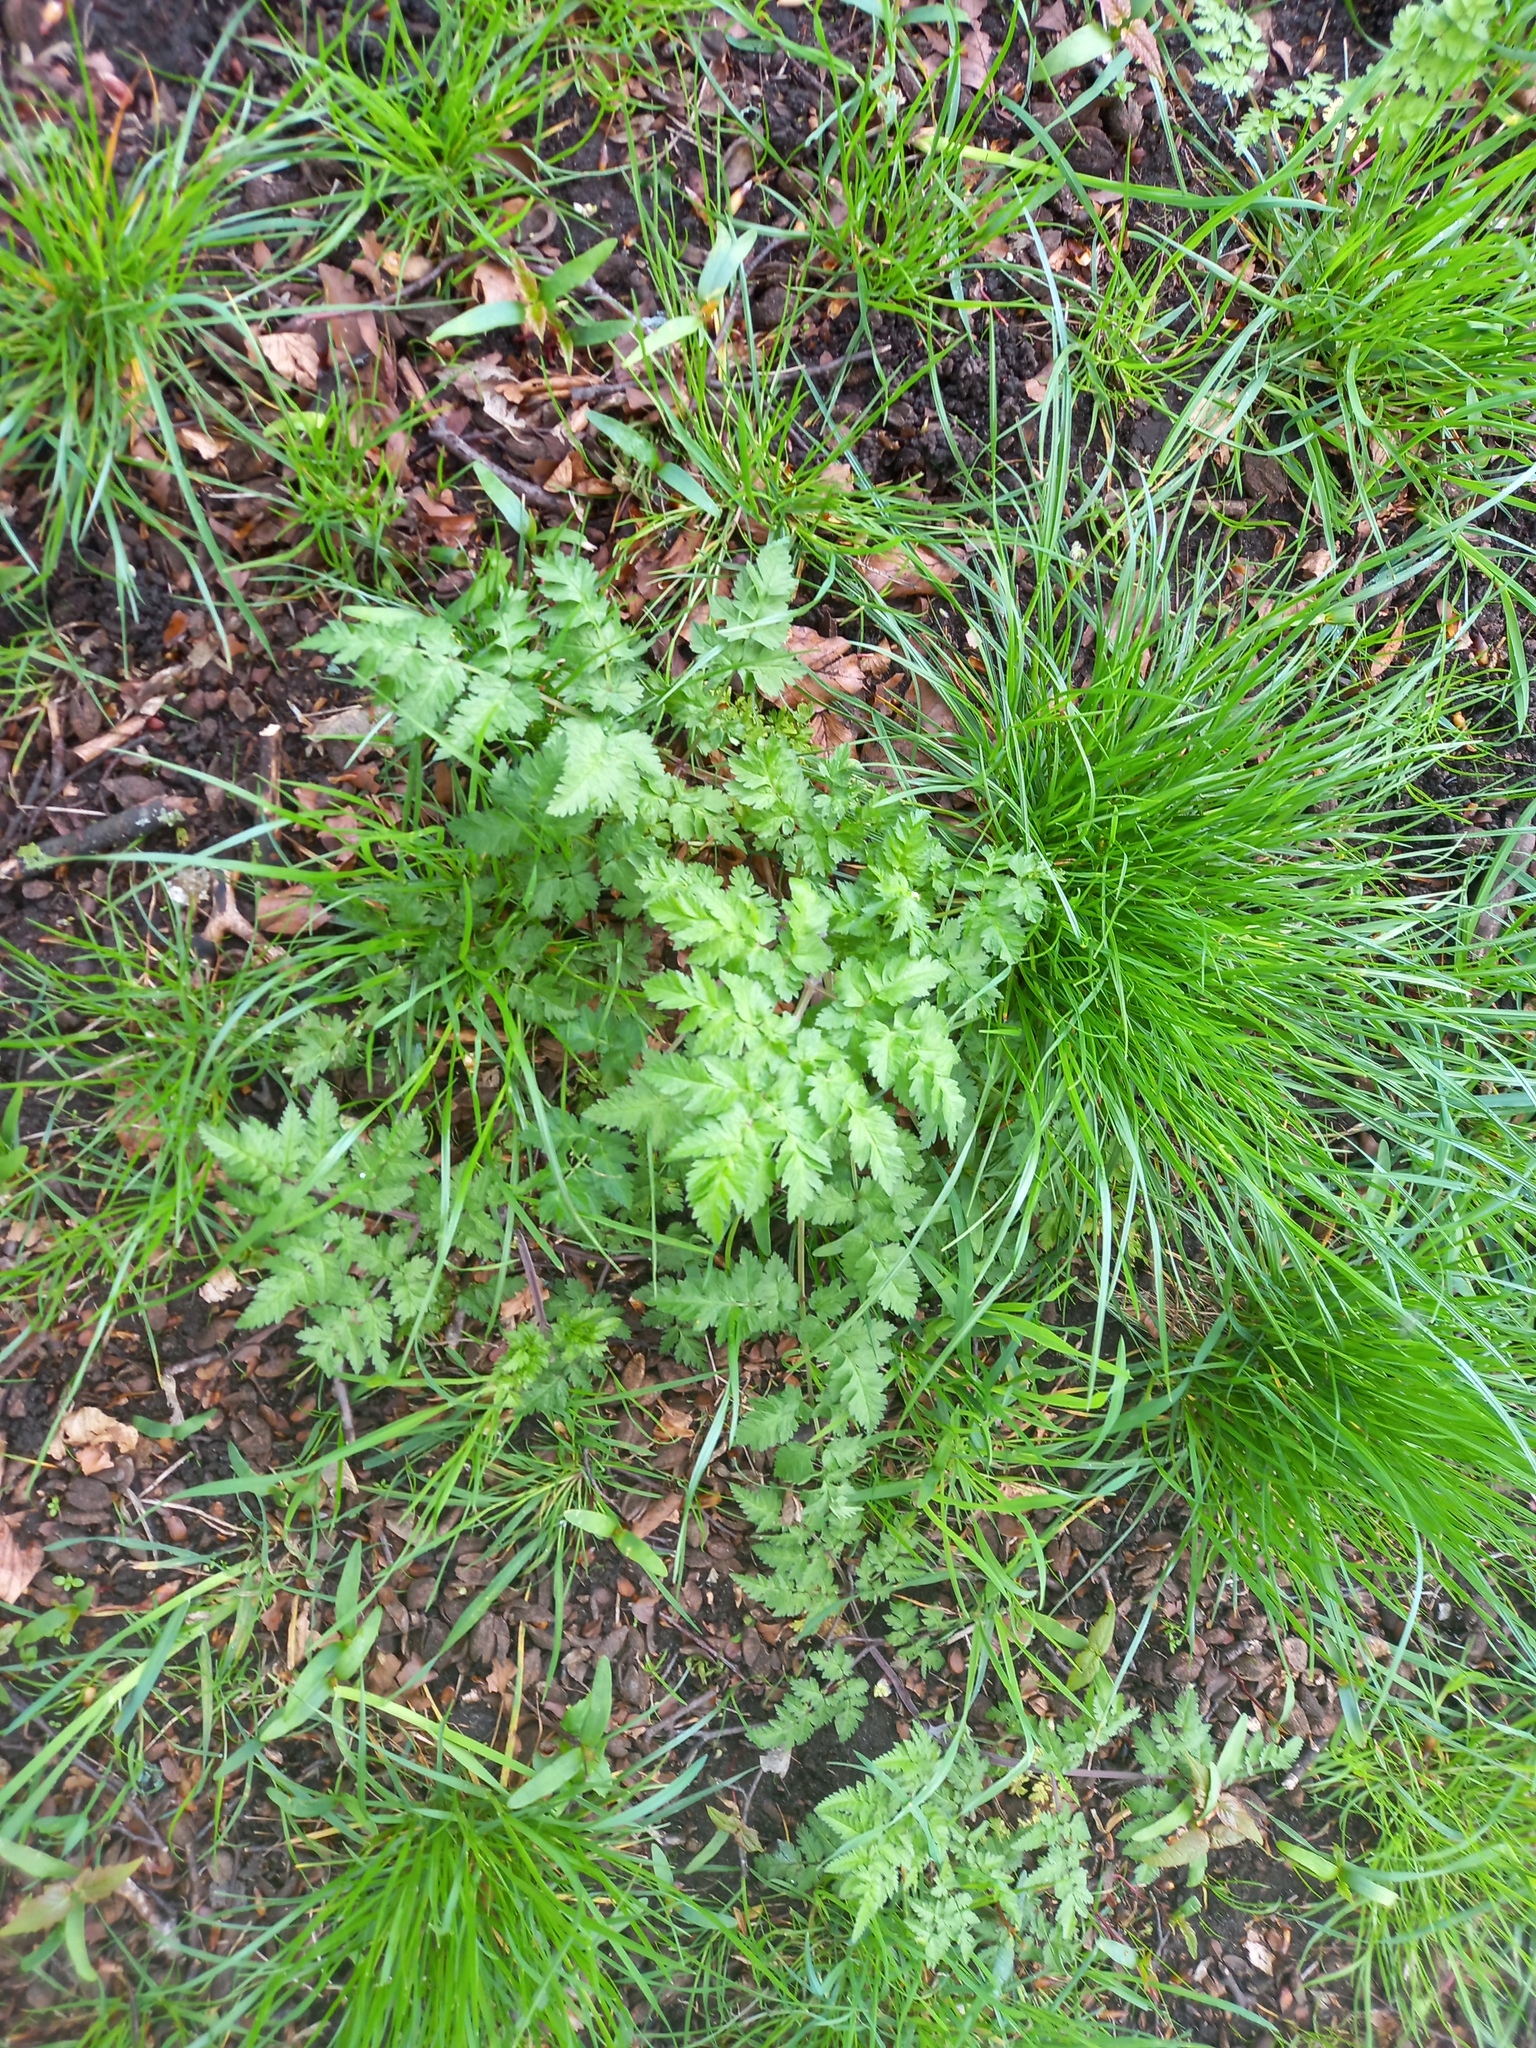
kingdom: Plantae
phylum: Tracheophyta
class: Magnoliopsida
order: Apiales
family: Apiaceae
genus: Anthriscus
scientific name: Anthriscus sylvestris
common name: Cow parsley
